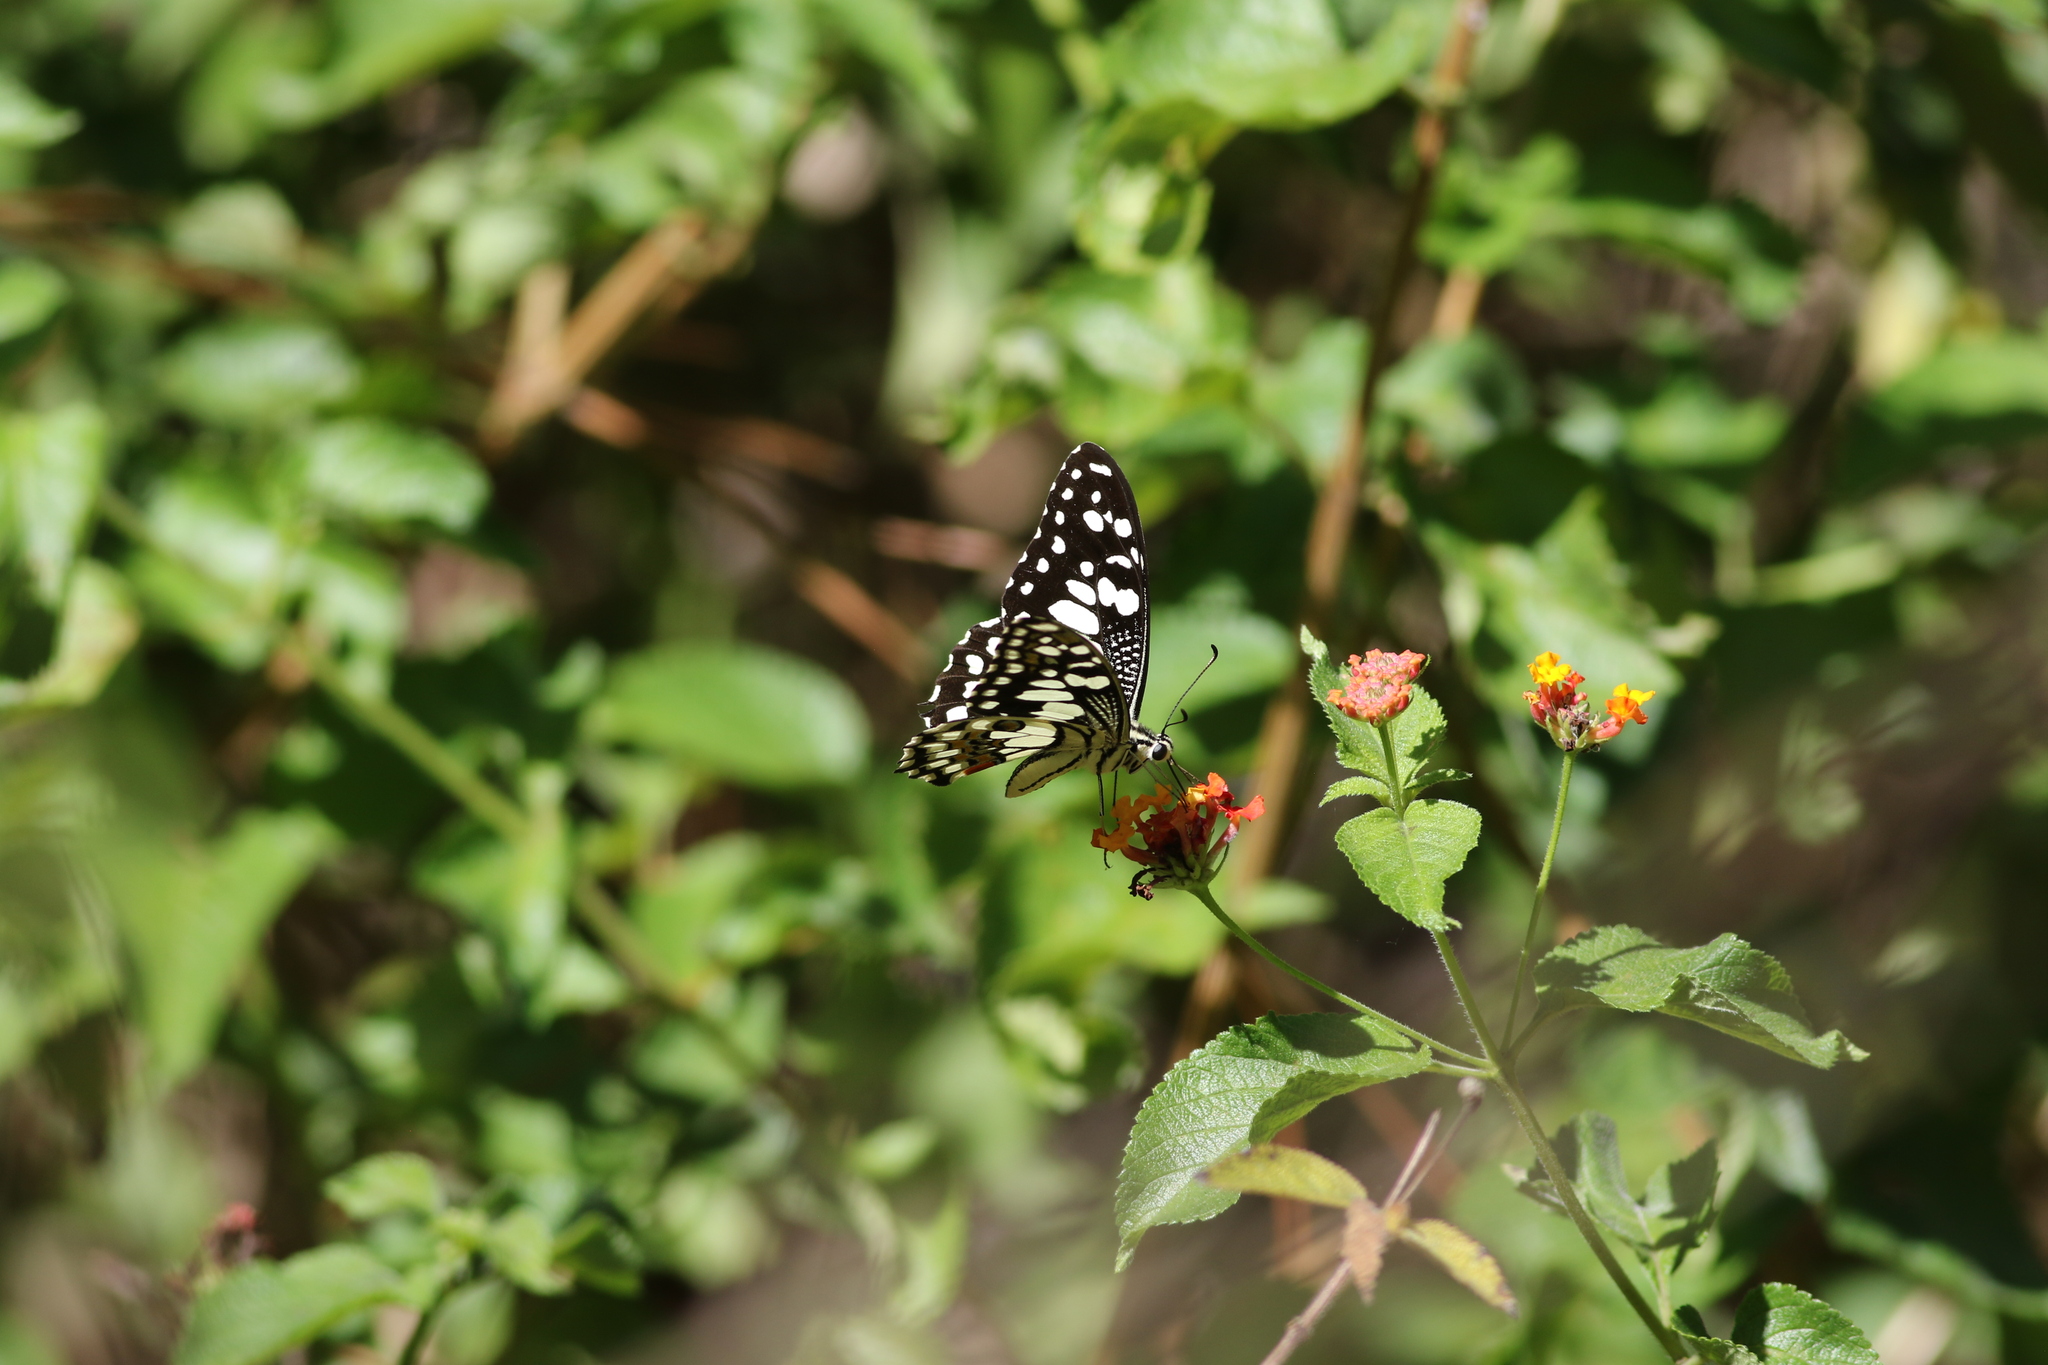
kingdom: Animalia
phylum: Arthropoda
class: Insecta
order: Lepidoptera
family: Papilionidae
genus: Papilio
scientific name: Papilio demoleus
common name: Lime butterfly
